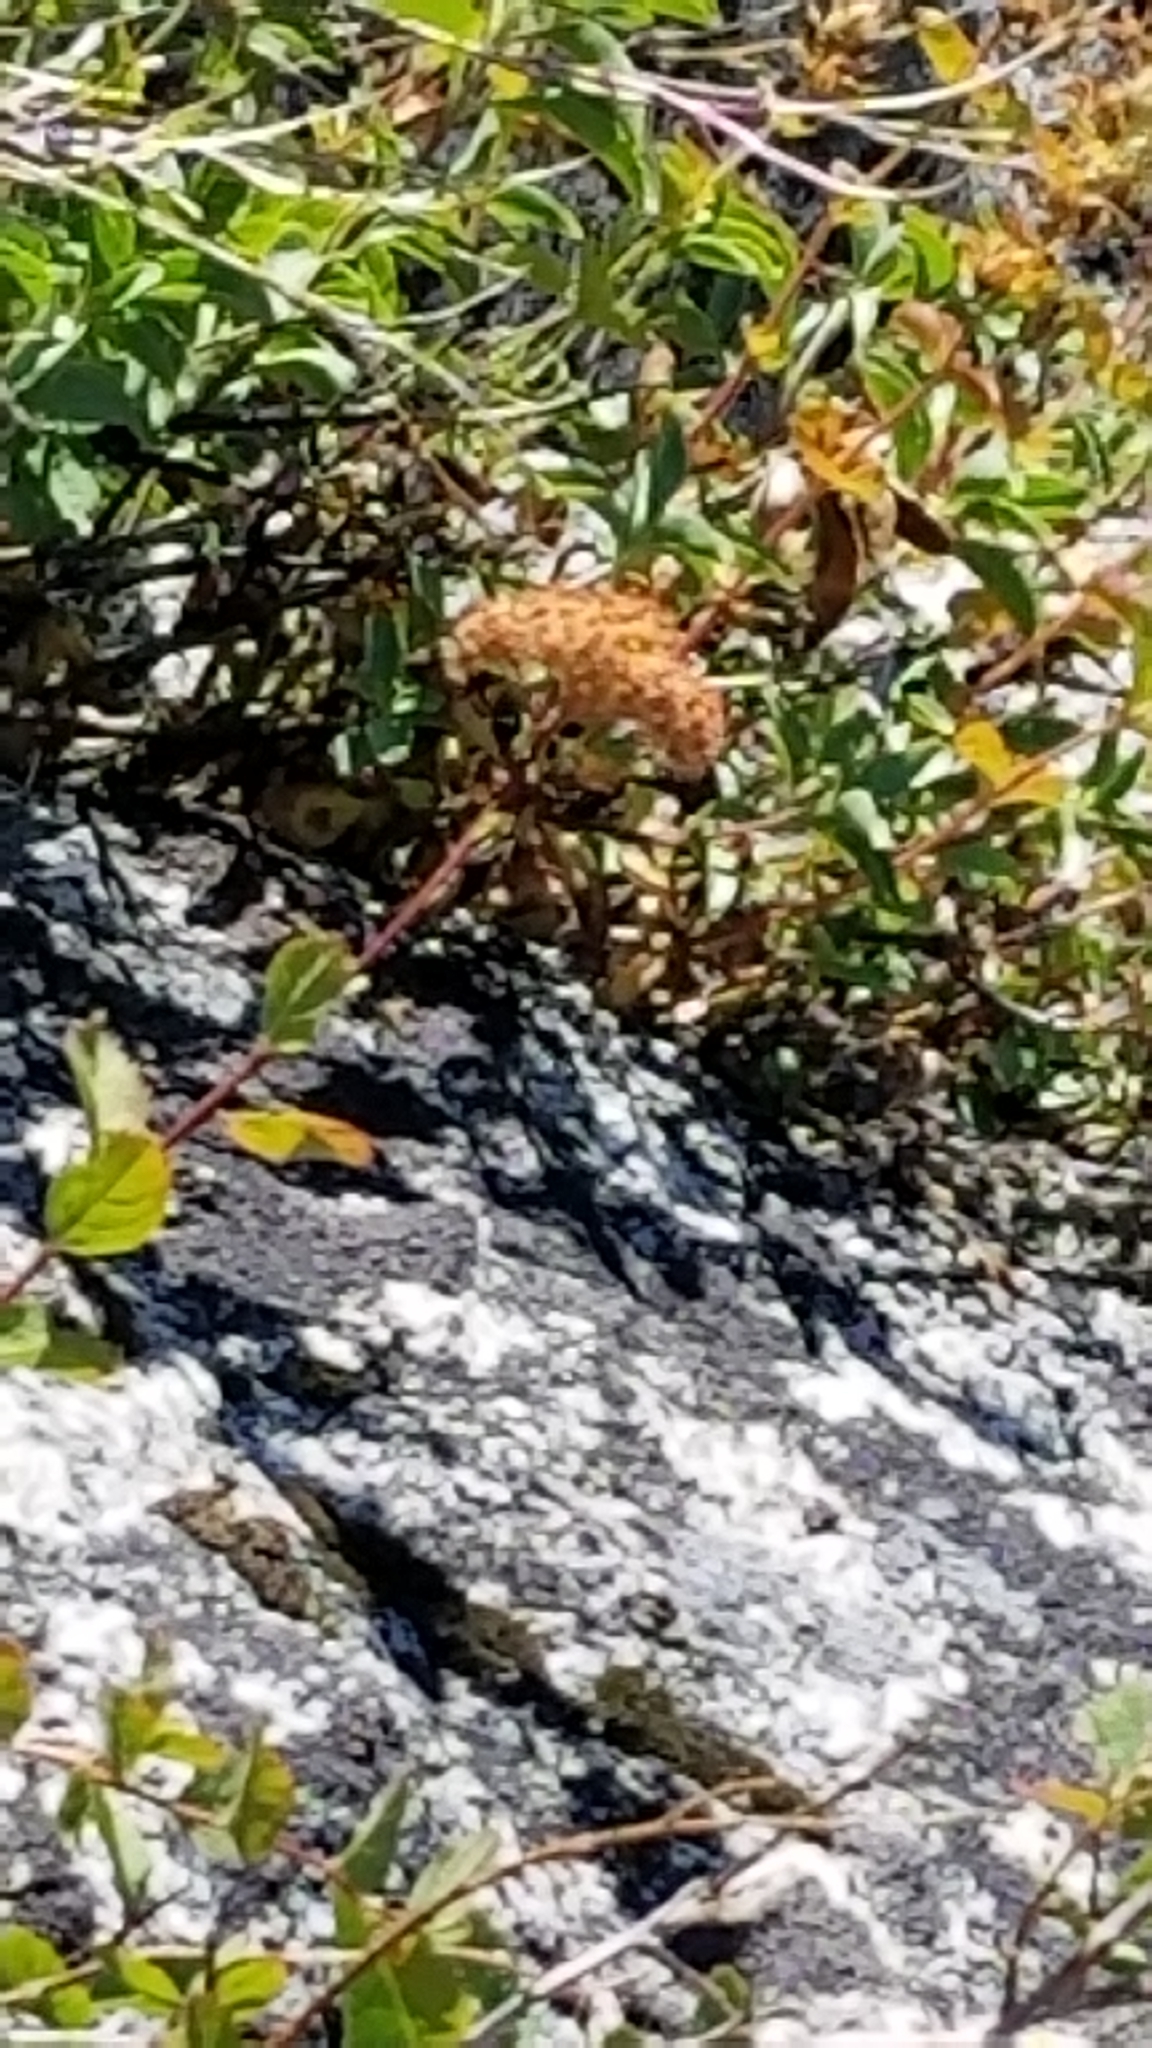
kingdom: Plantae
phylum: Tracheophyta
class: Magnoliopsida
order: Rosales
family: Rosaceae
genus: Spiraea
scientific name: Spiraea splendens
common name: Subalpine meadowsweet
